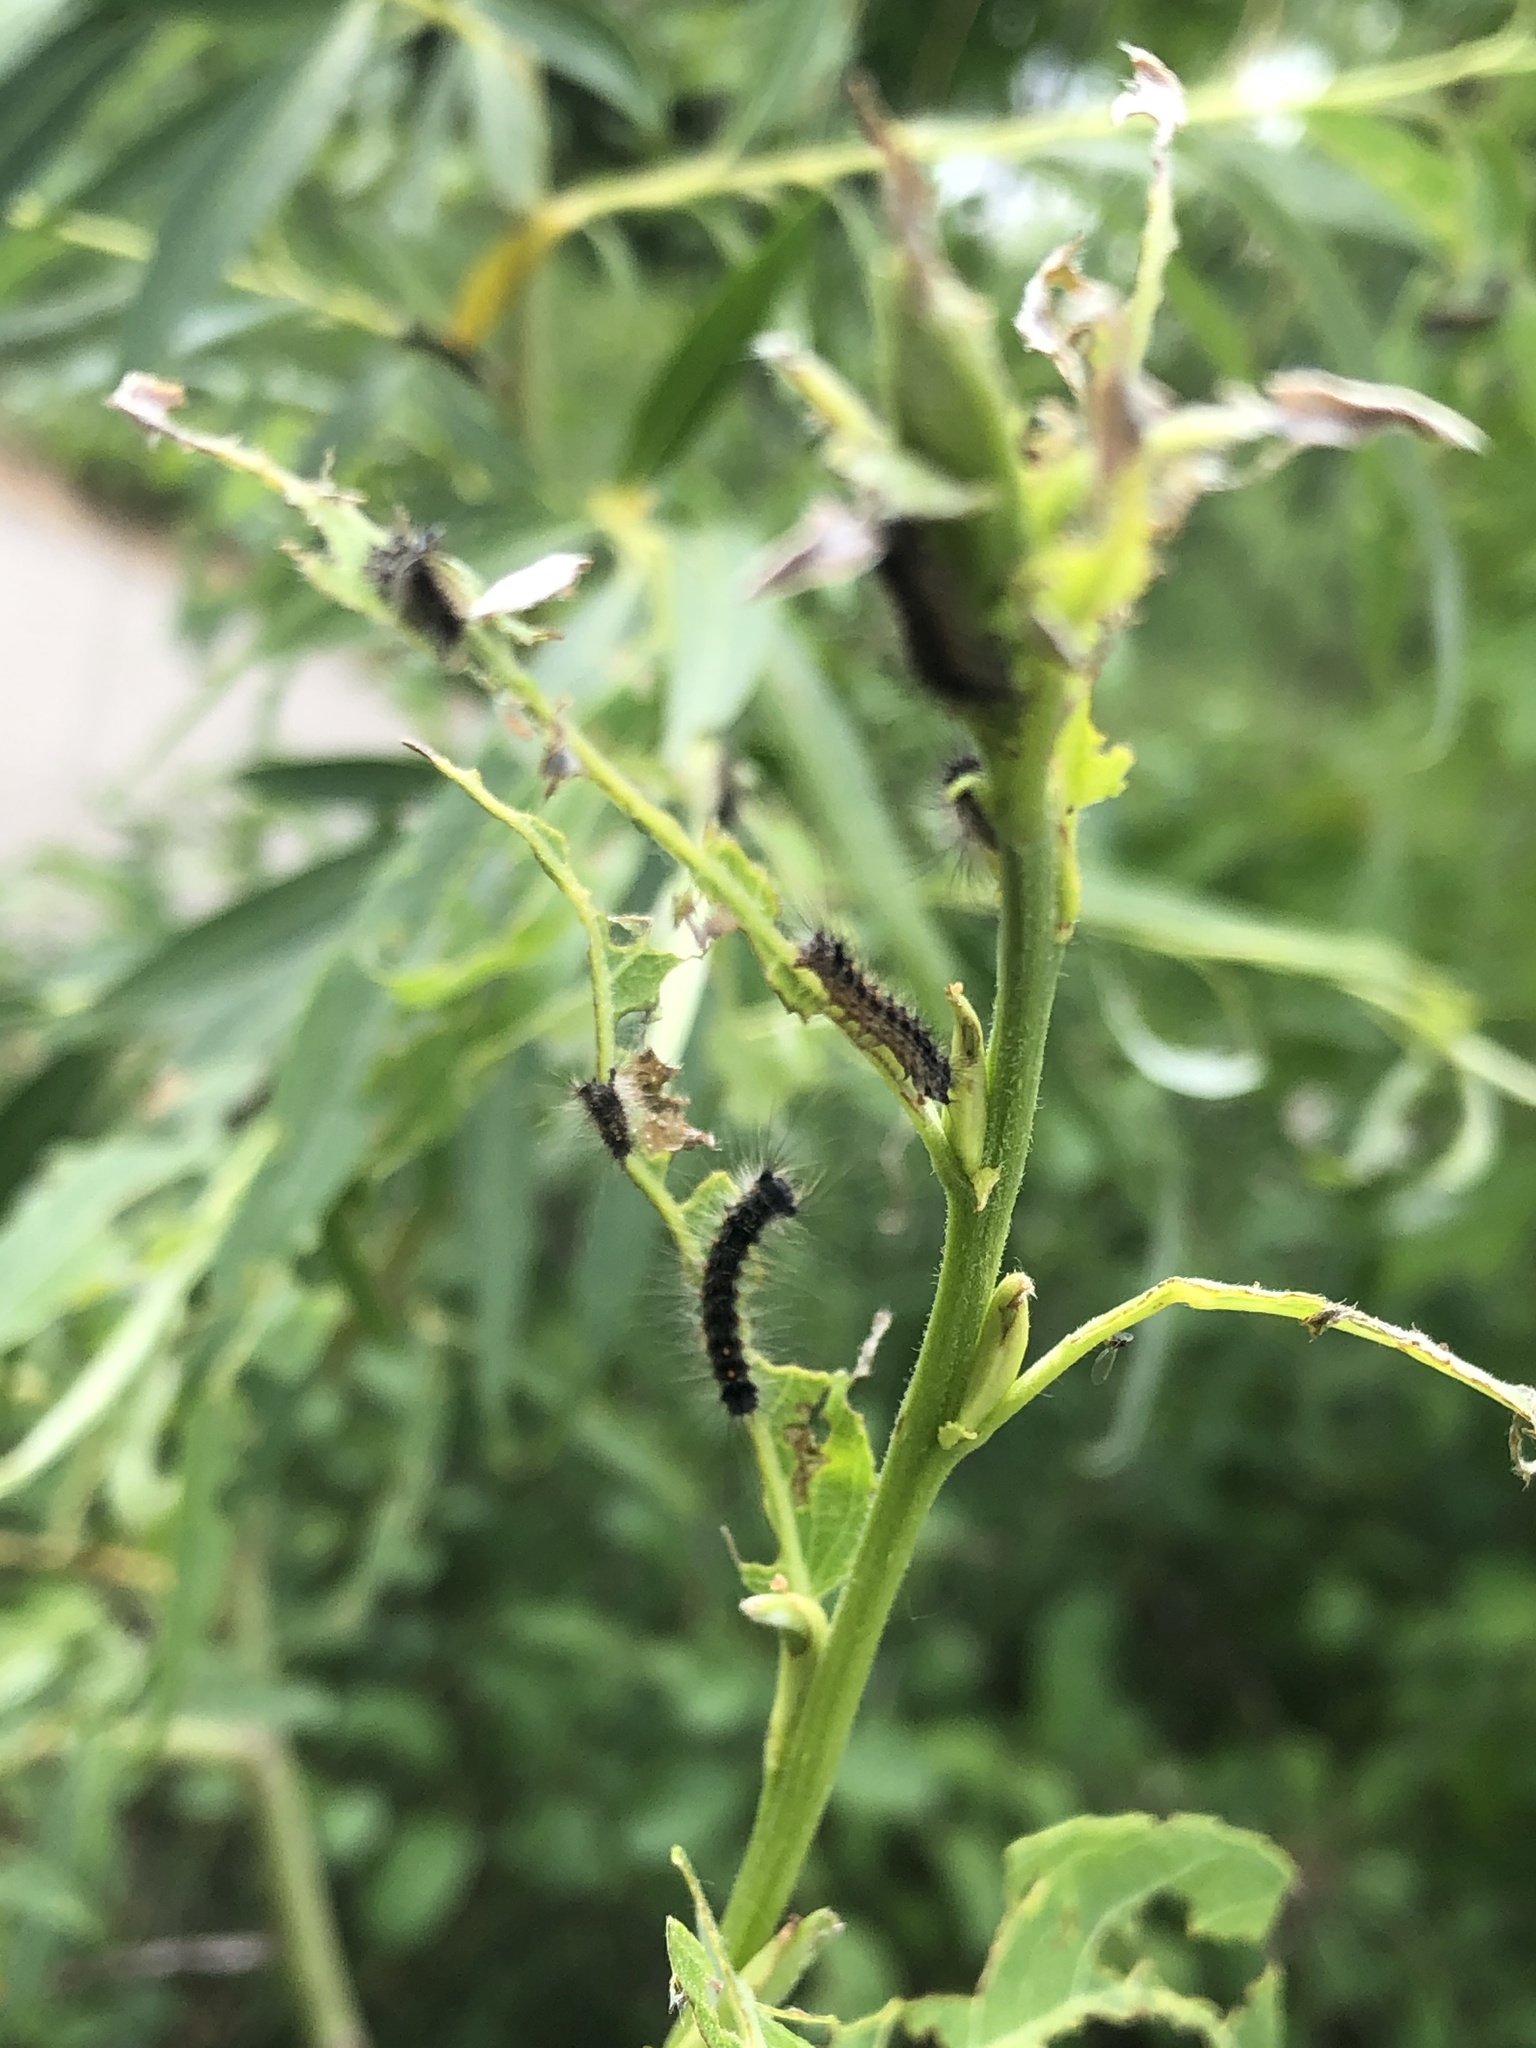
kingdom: Animalia
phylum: Arthropoda
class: Insecta
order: Lepidoptera
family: Erebidae
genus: Lymantria
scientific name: Lymantria dispar
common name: Gypsy moth
